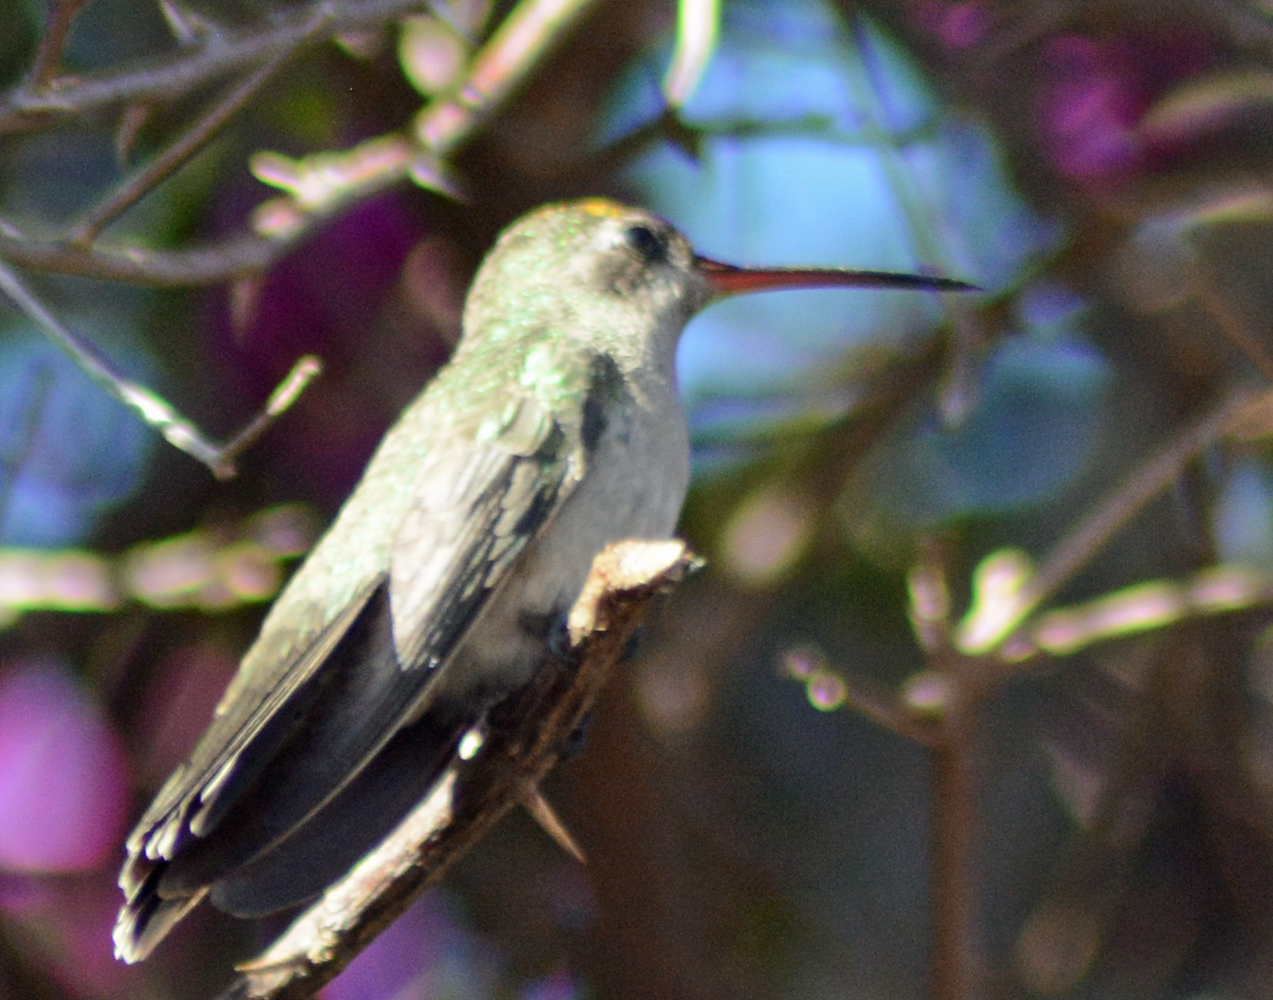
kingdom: Animalia
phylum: Chordata
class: Aves
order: Apodiformes
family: Trochilidae
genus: Cynanthus
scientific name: Cynanthus latirostris
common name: Broad-billed hummingbird
